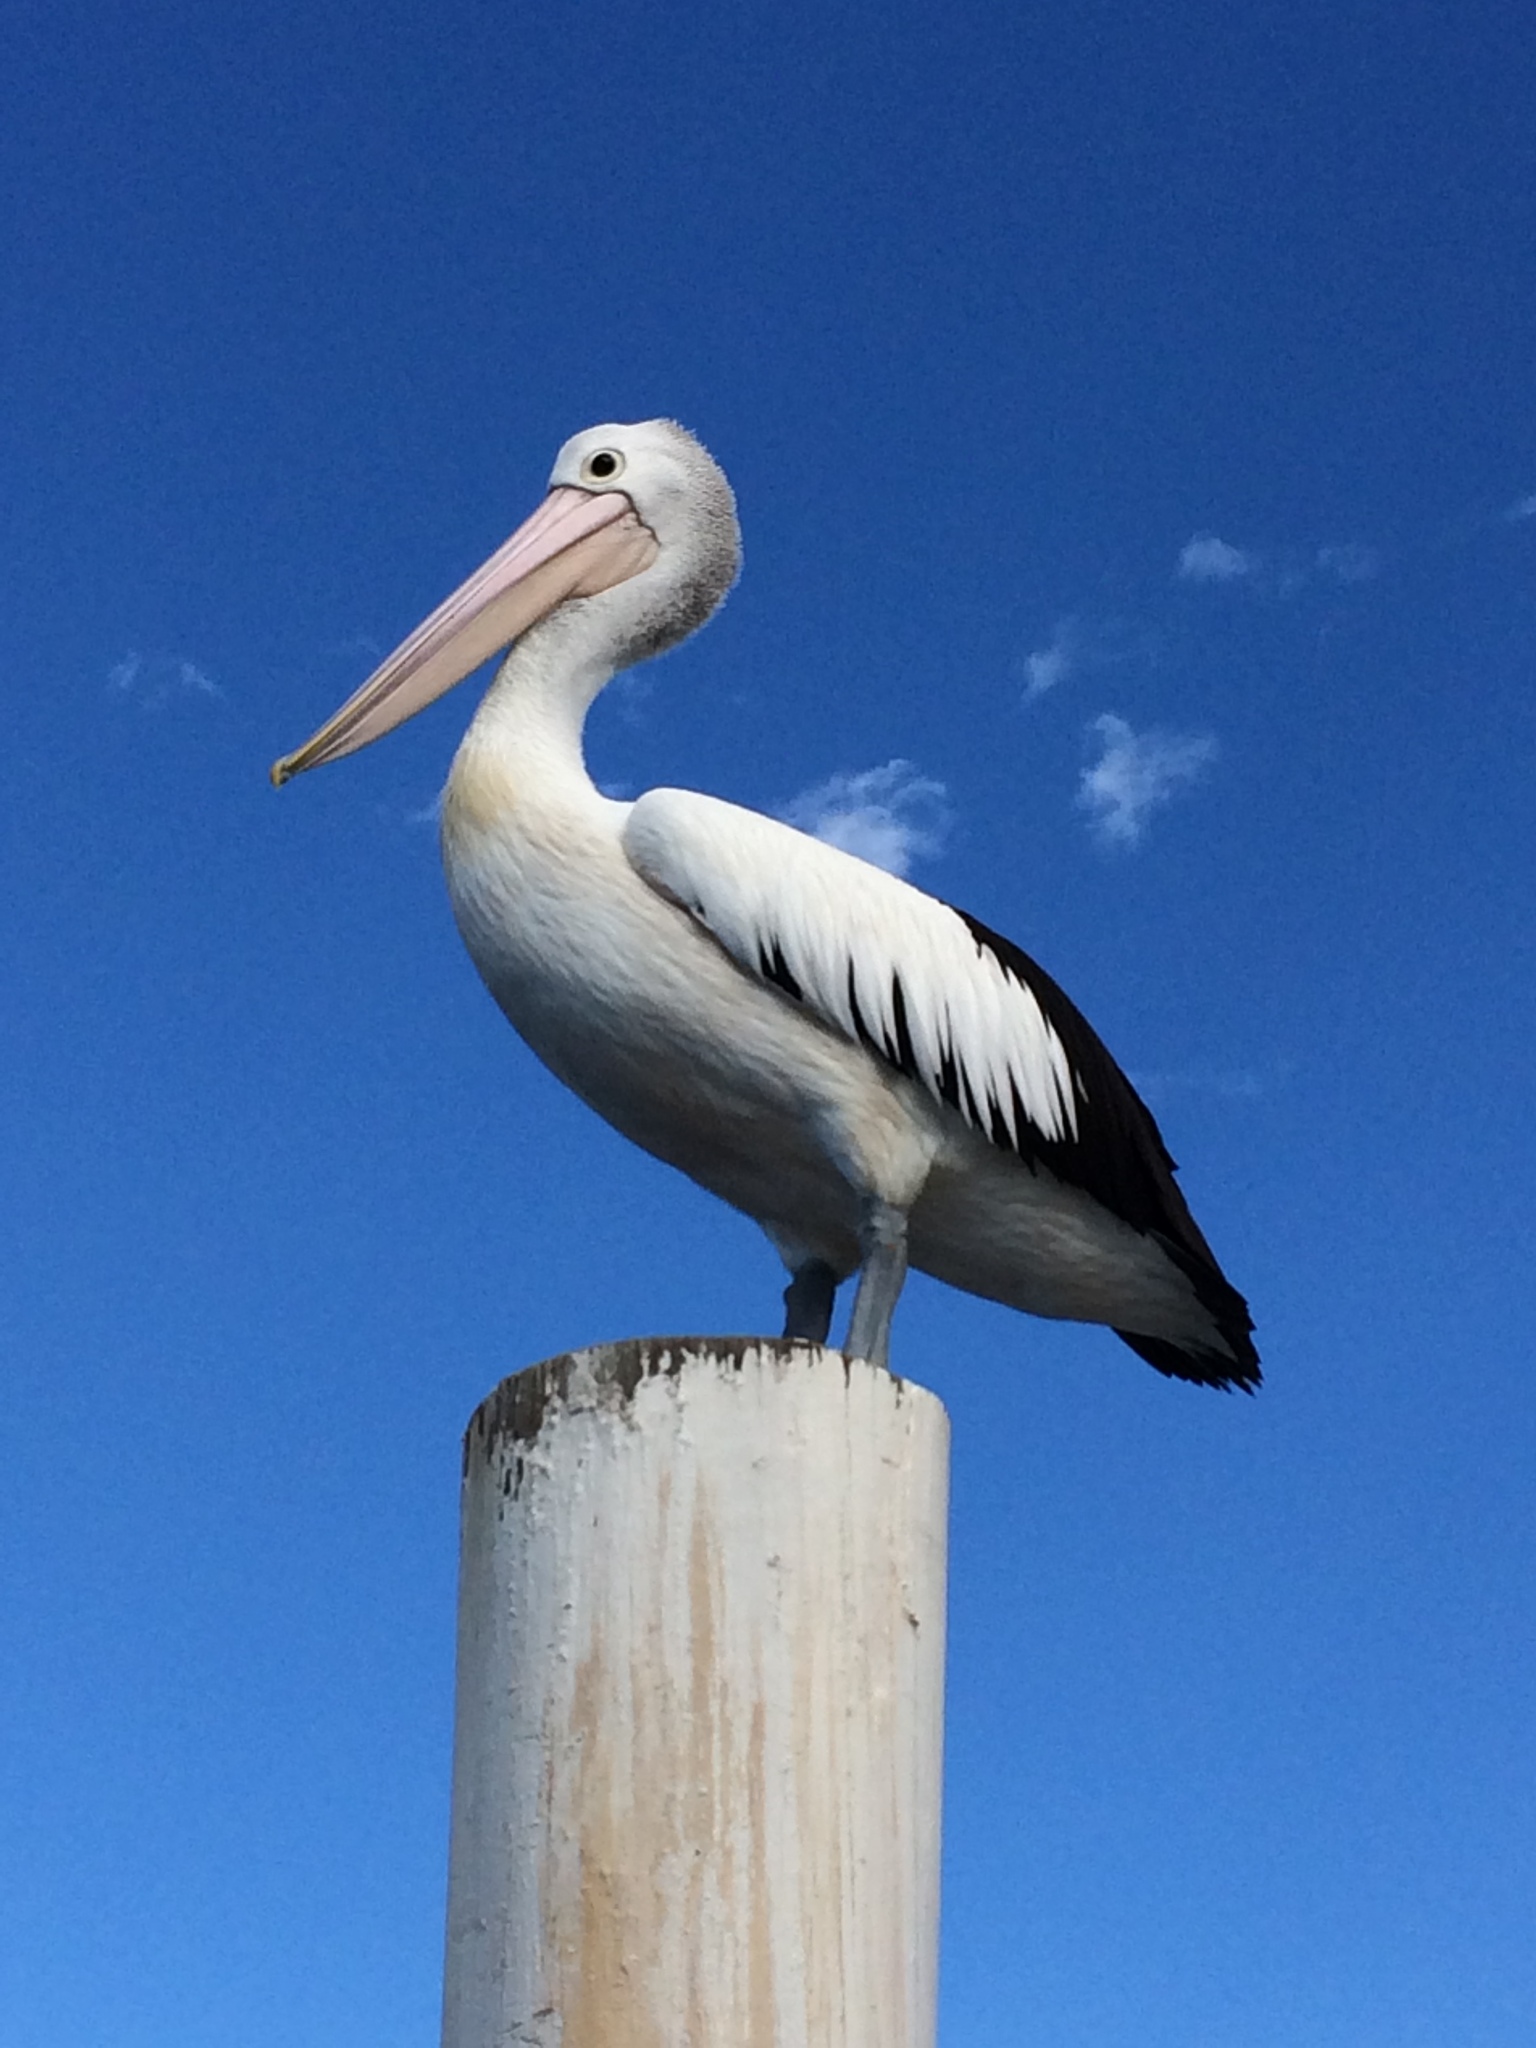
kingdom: Animalia
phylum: Chordata
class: Aves
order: Pelecaniformes
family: Pelecanidae
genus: Pelecanus
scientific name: Pelecanus conspicillatus
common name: Australian pelican
